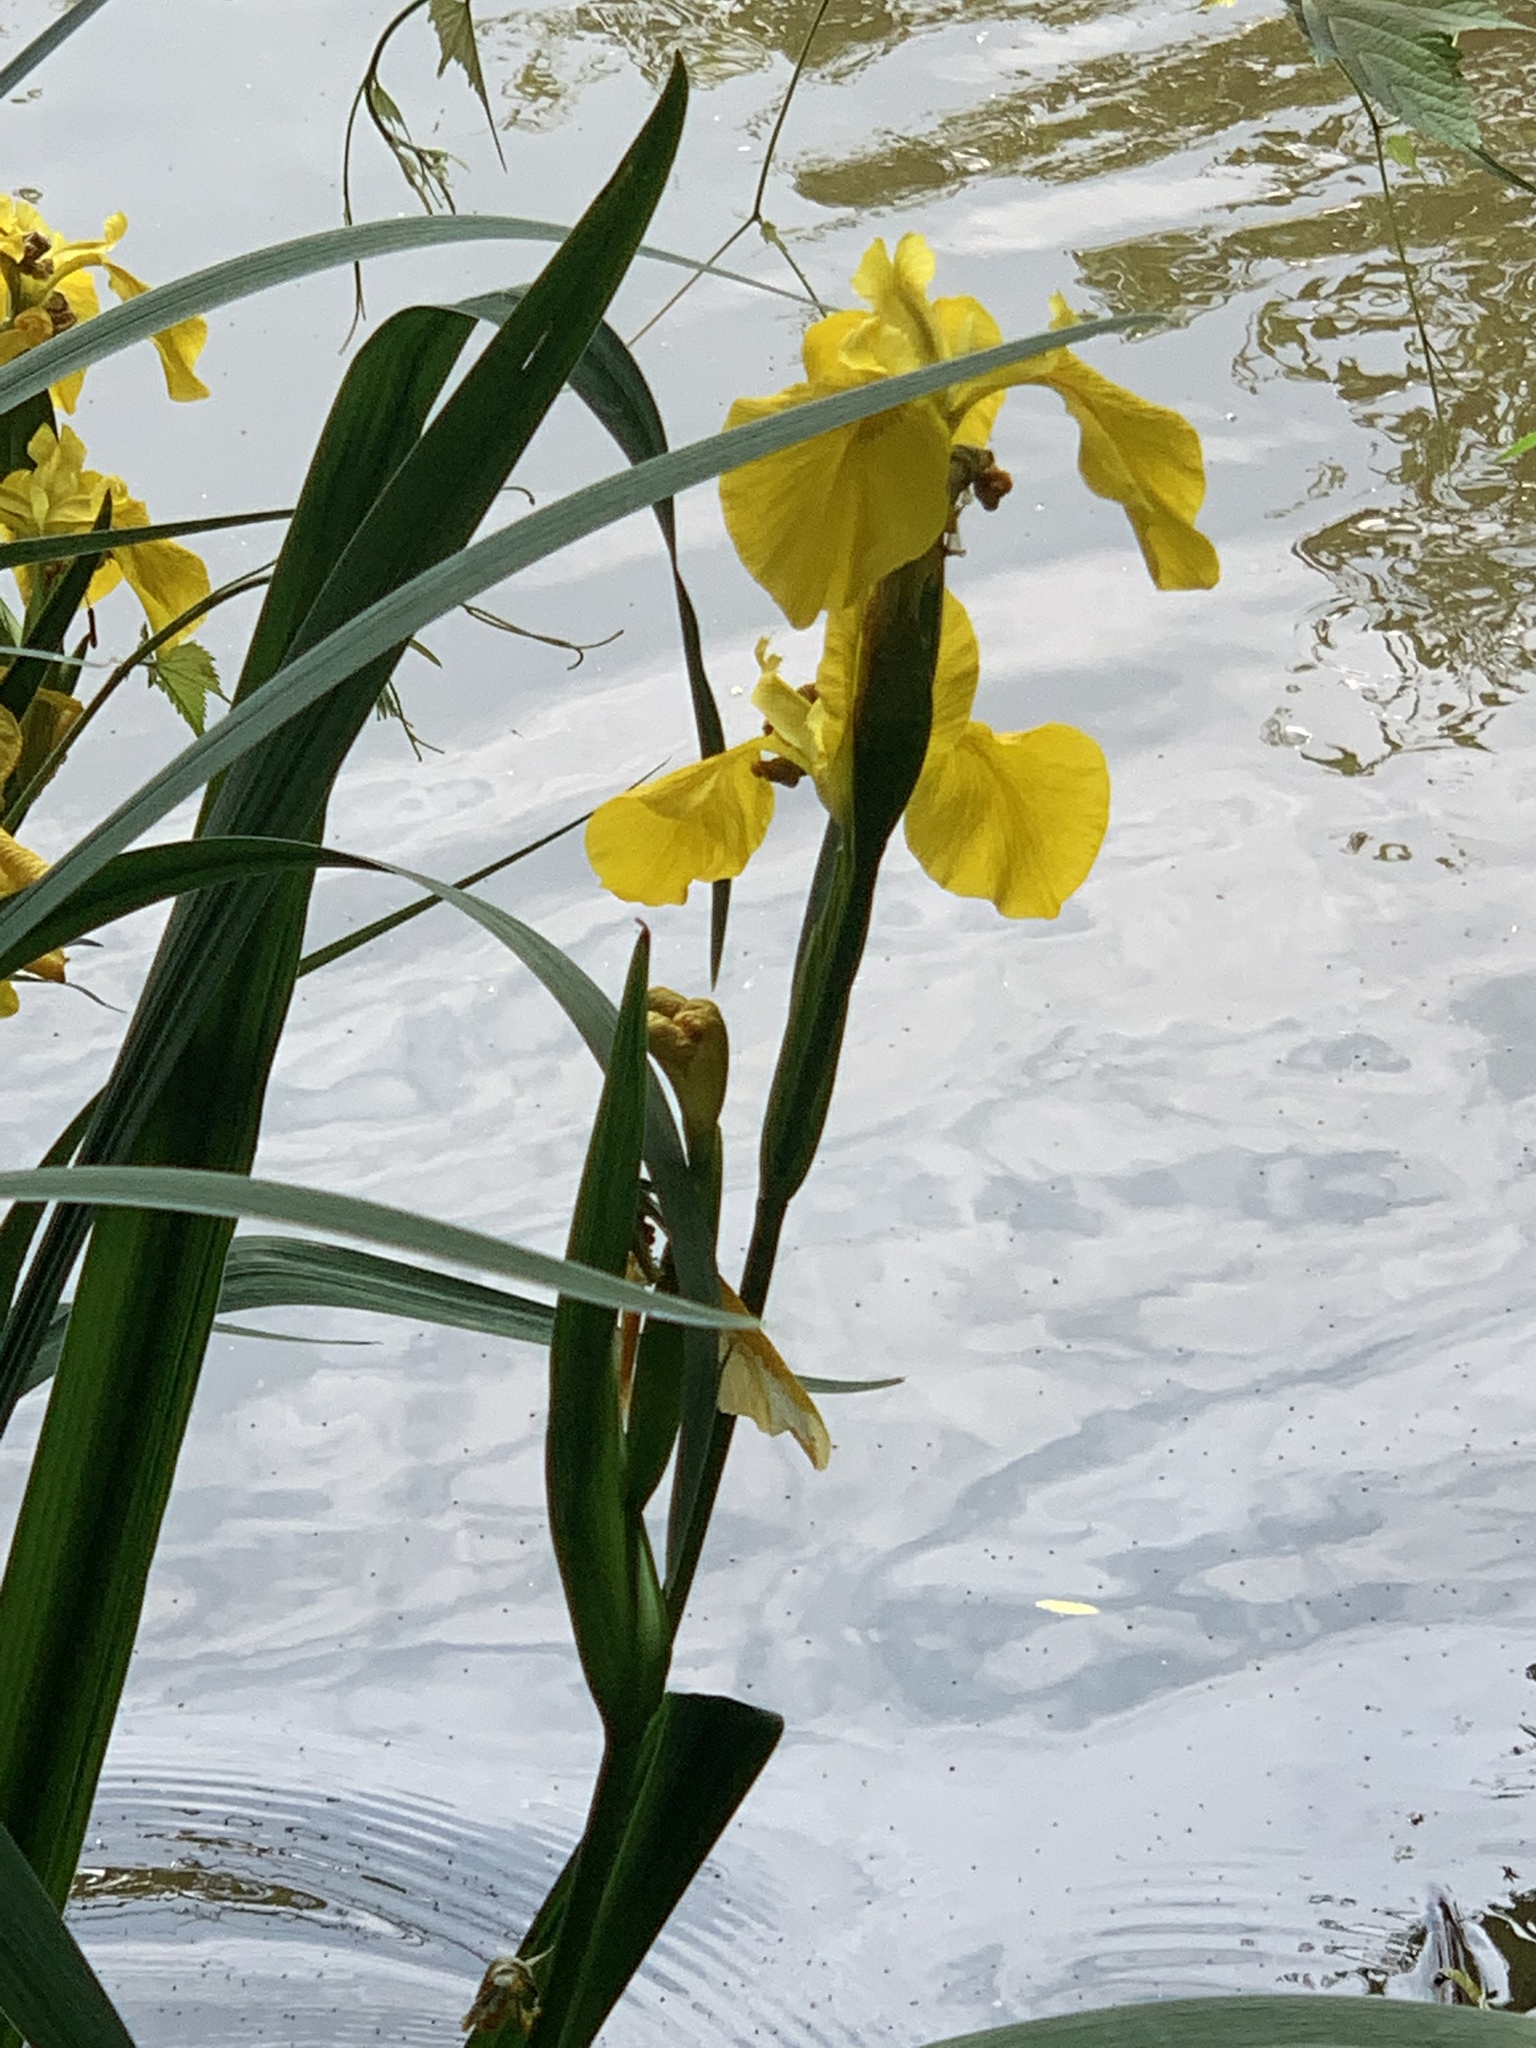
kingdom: Plantae
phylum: Tracheophyta
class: Liliopsida
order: Asparagales
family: Iridaceae
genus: Iris
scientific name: Iris pseudacorus
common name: Yellow flag
